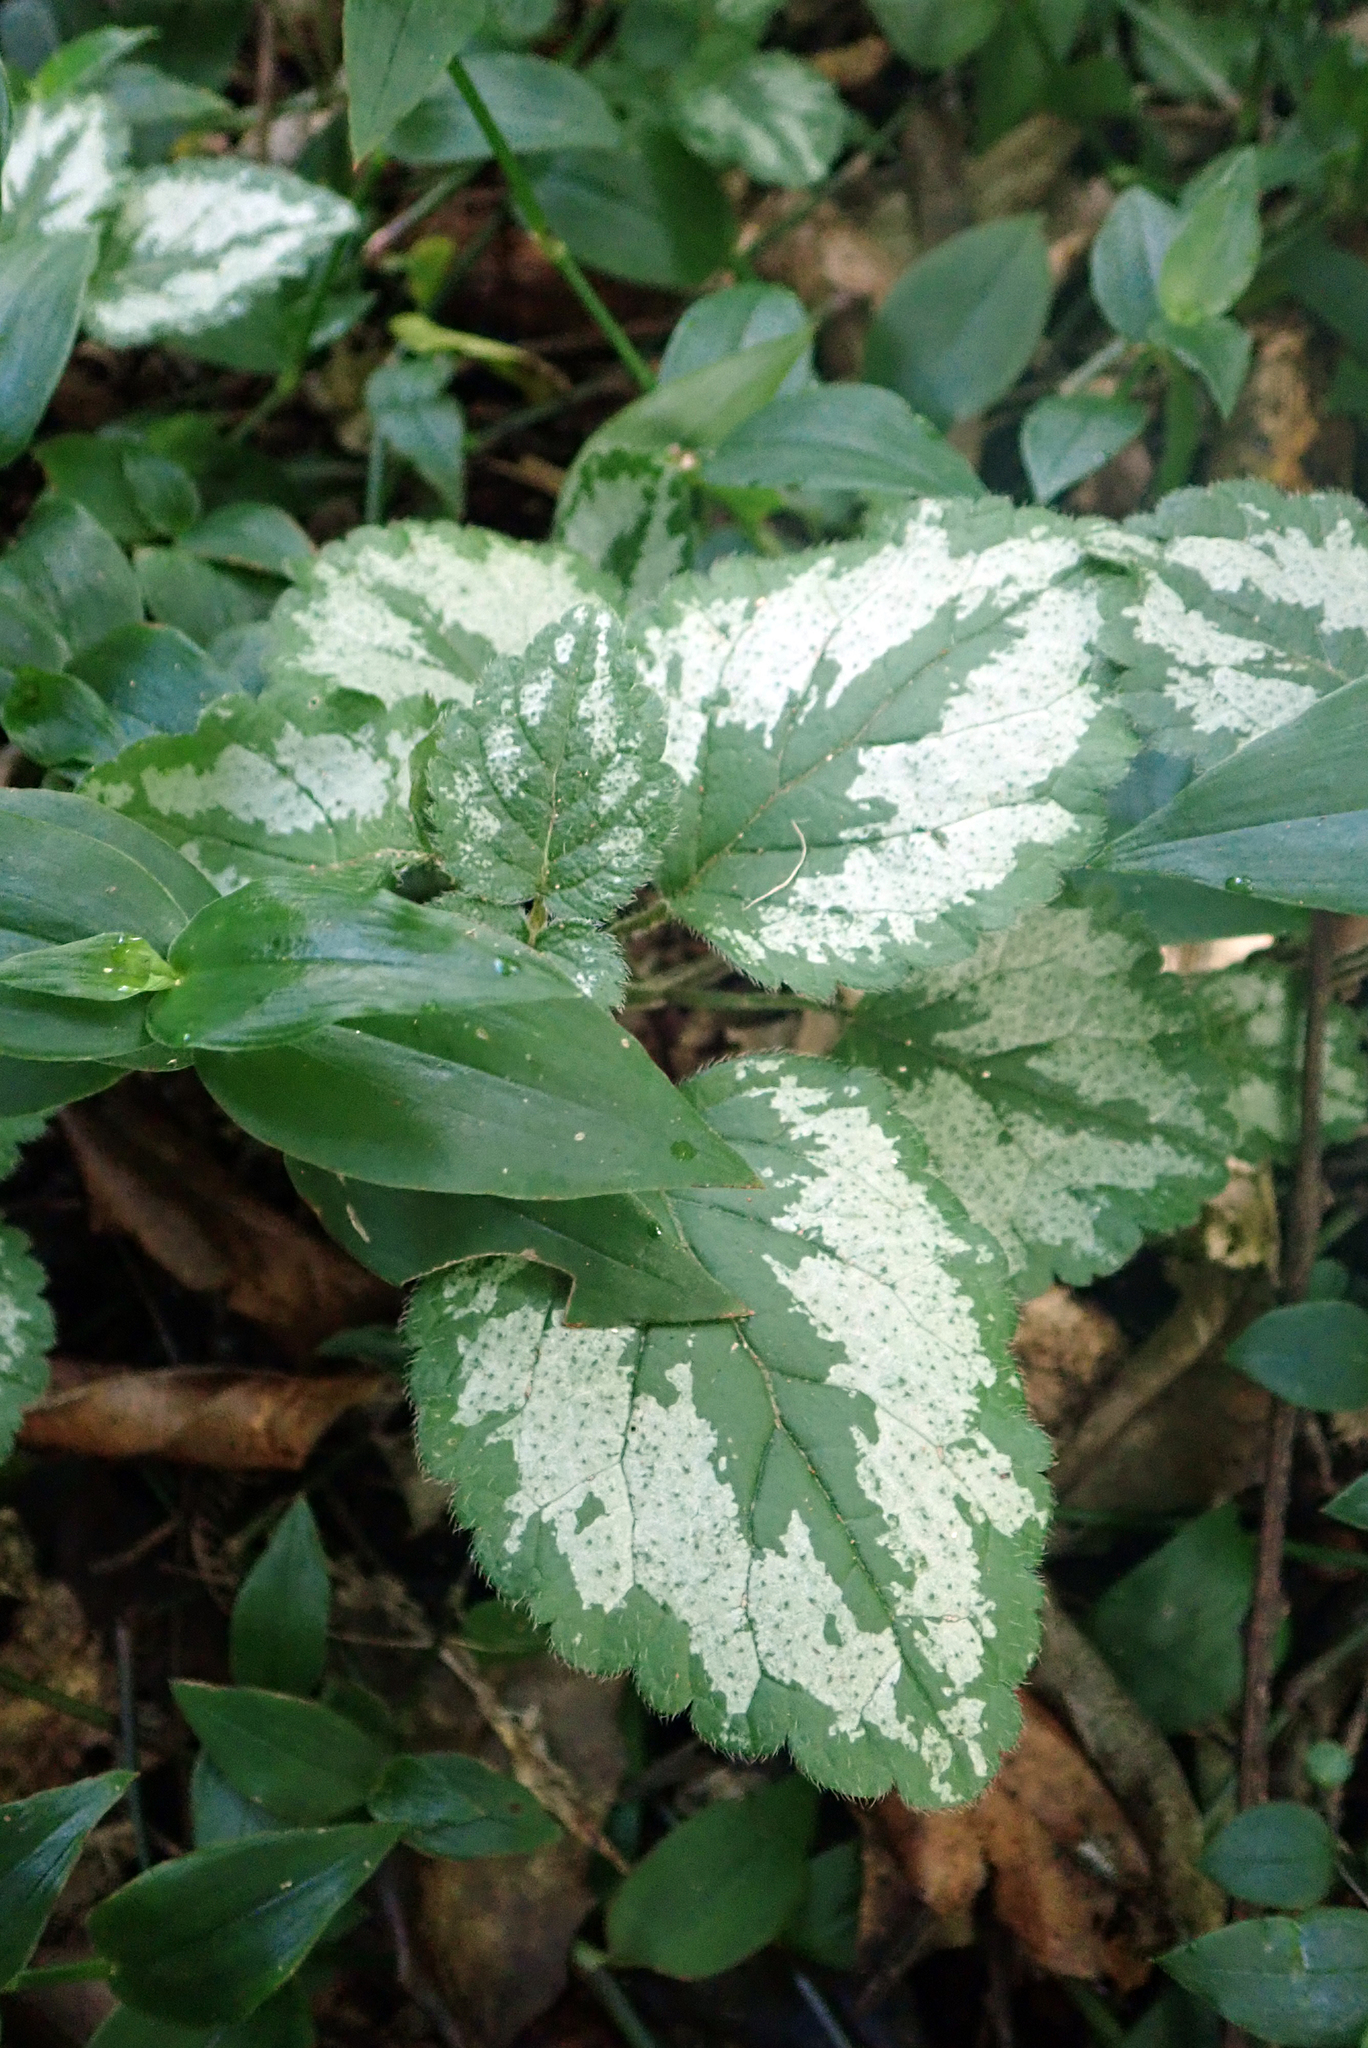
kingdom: Plantae
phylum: Tracheophyta
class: Magnoliopsida
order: Lamiales
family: Lamiaceae
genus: Lamium
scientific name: Lamium galeobdolon
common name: Yellow archangel
